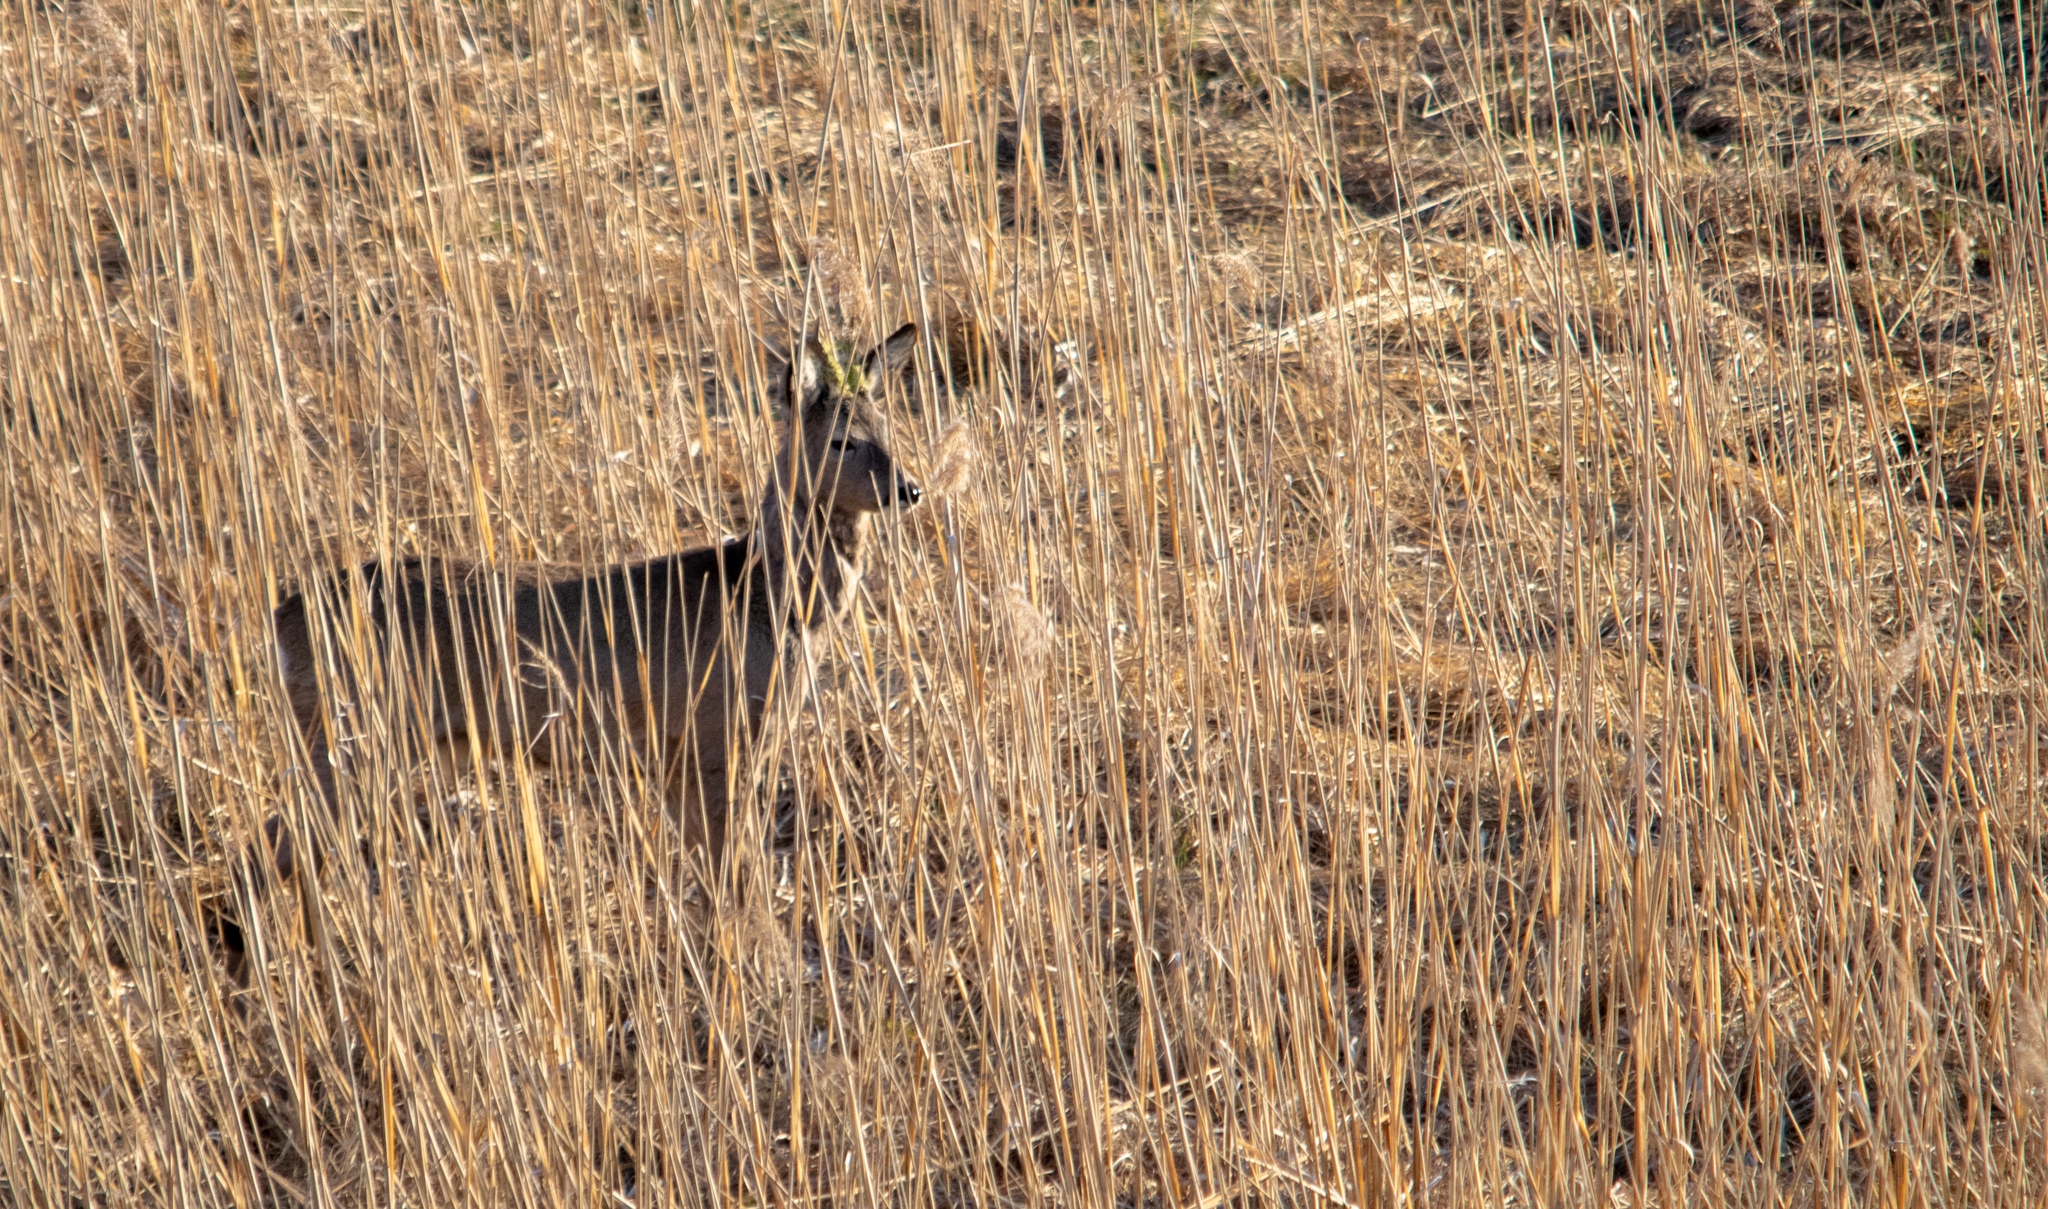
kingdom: Animalia
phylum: Chordata
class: Mammalia
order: Artiodactyla
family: Cervidae
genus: Capreolus
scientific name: Capreolus capreolus
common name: Western roe deer
